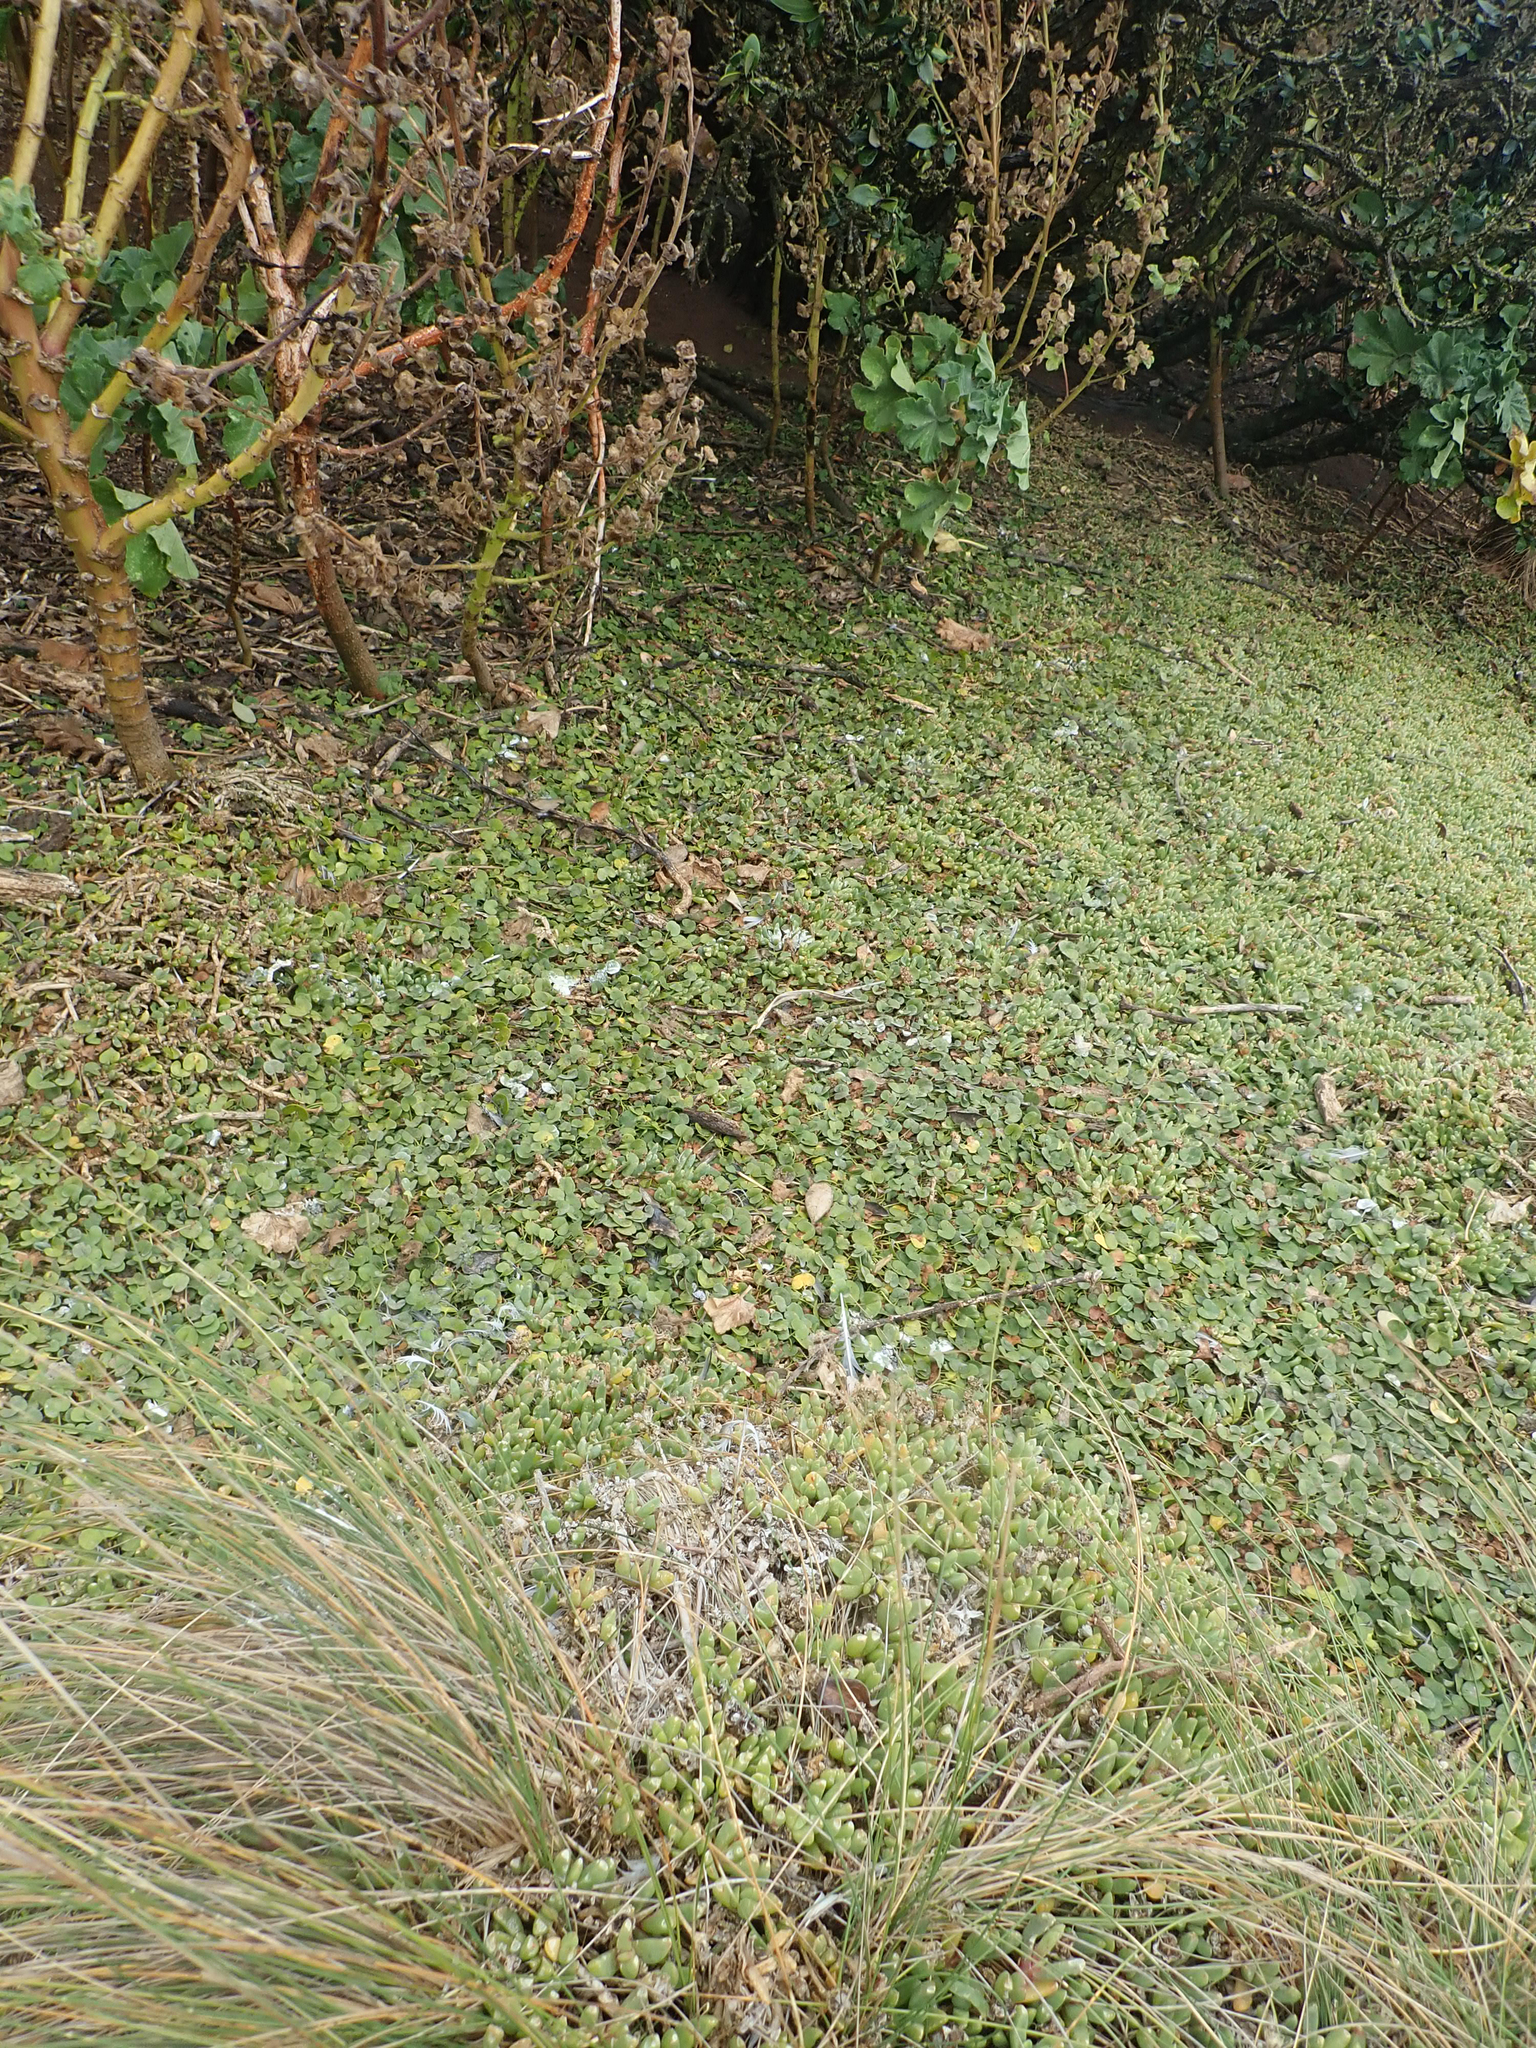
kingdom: Plantae
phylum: Tracheophyta
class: Magnoliopsida
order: Solanales
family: Convolvulaceae
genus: Dichondra
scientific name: Dichondra brevifolia
